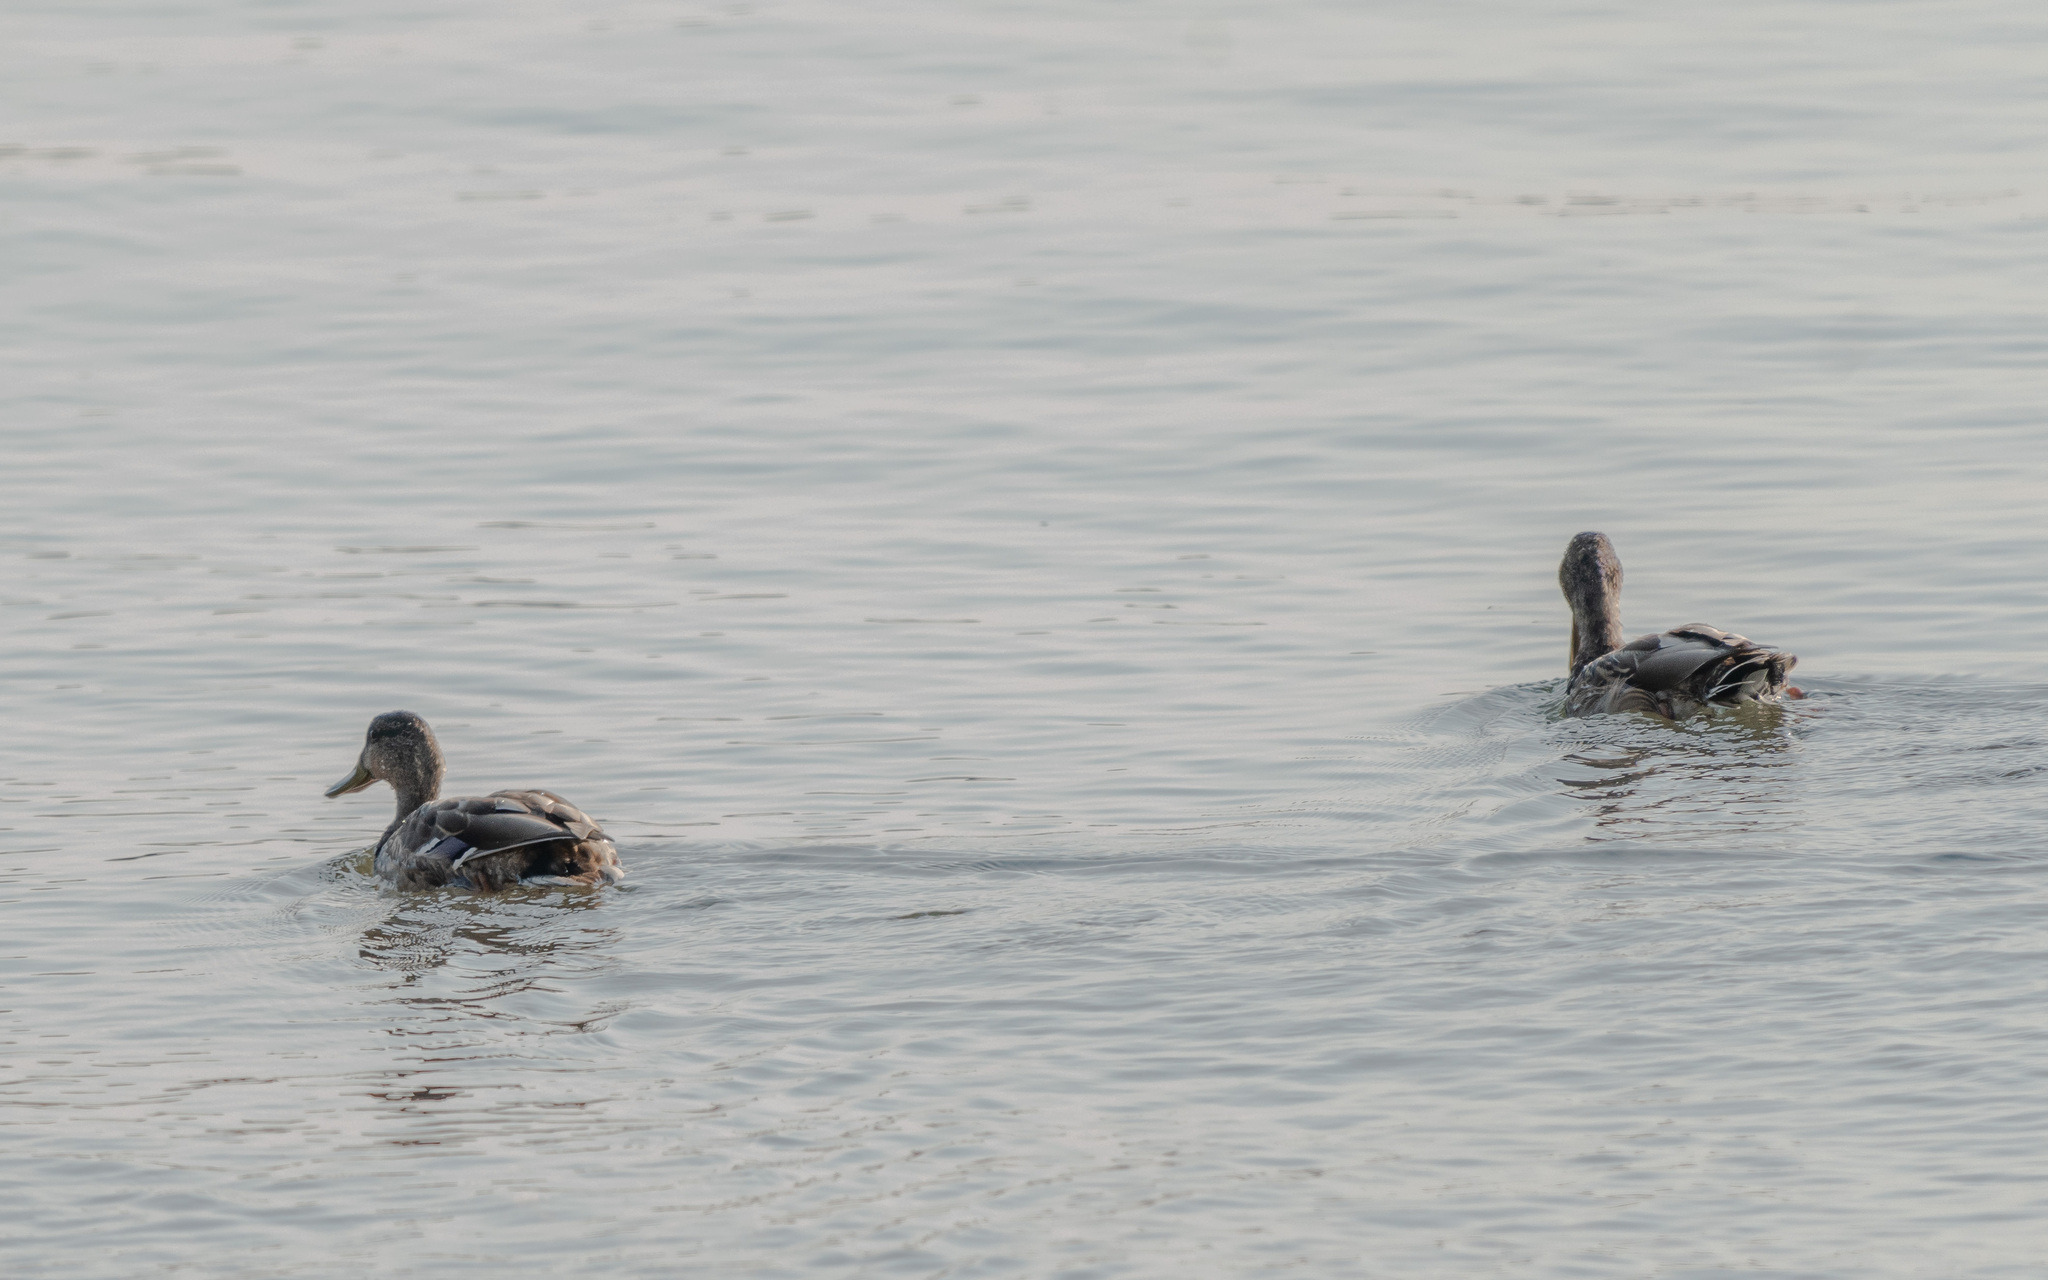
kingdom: Animalia
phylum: Chordata
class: Aves
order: Anseriformes
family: Anatidae
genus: Anas
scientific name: Anas platyrhynchos
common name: Mallard
